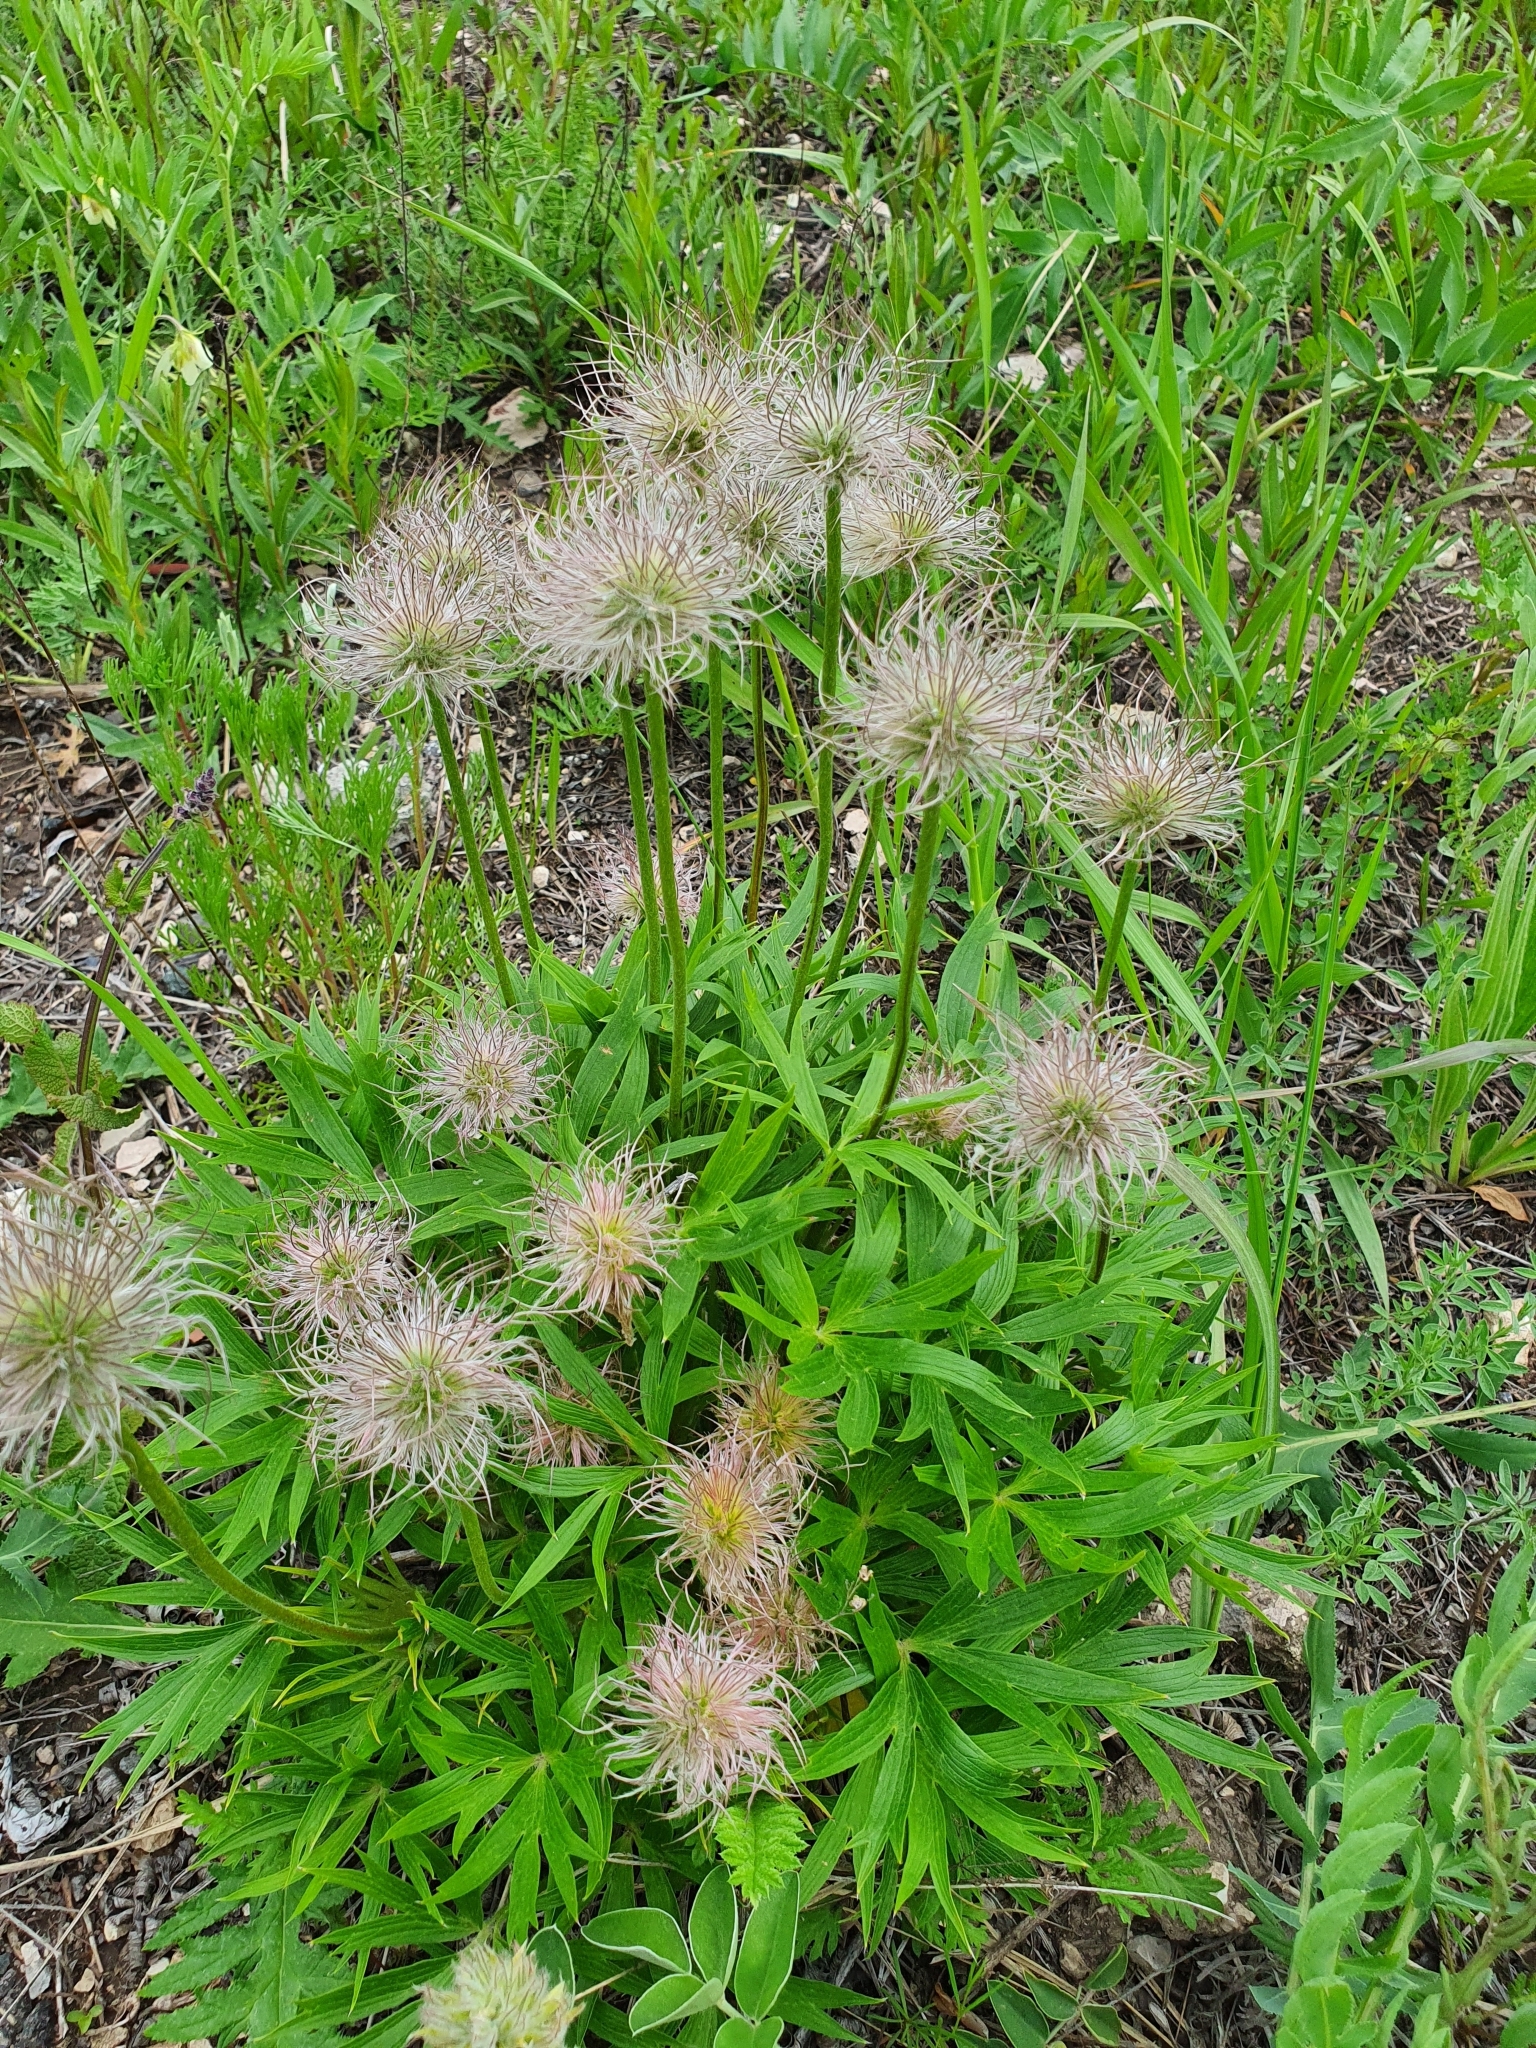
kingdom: Plantae
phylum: Tracheophyta
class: Magnoliopsida
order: Ranunculales
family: Ranunculaceae
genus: Pulsatilla
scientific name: Pulsatilla patens
